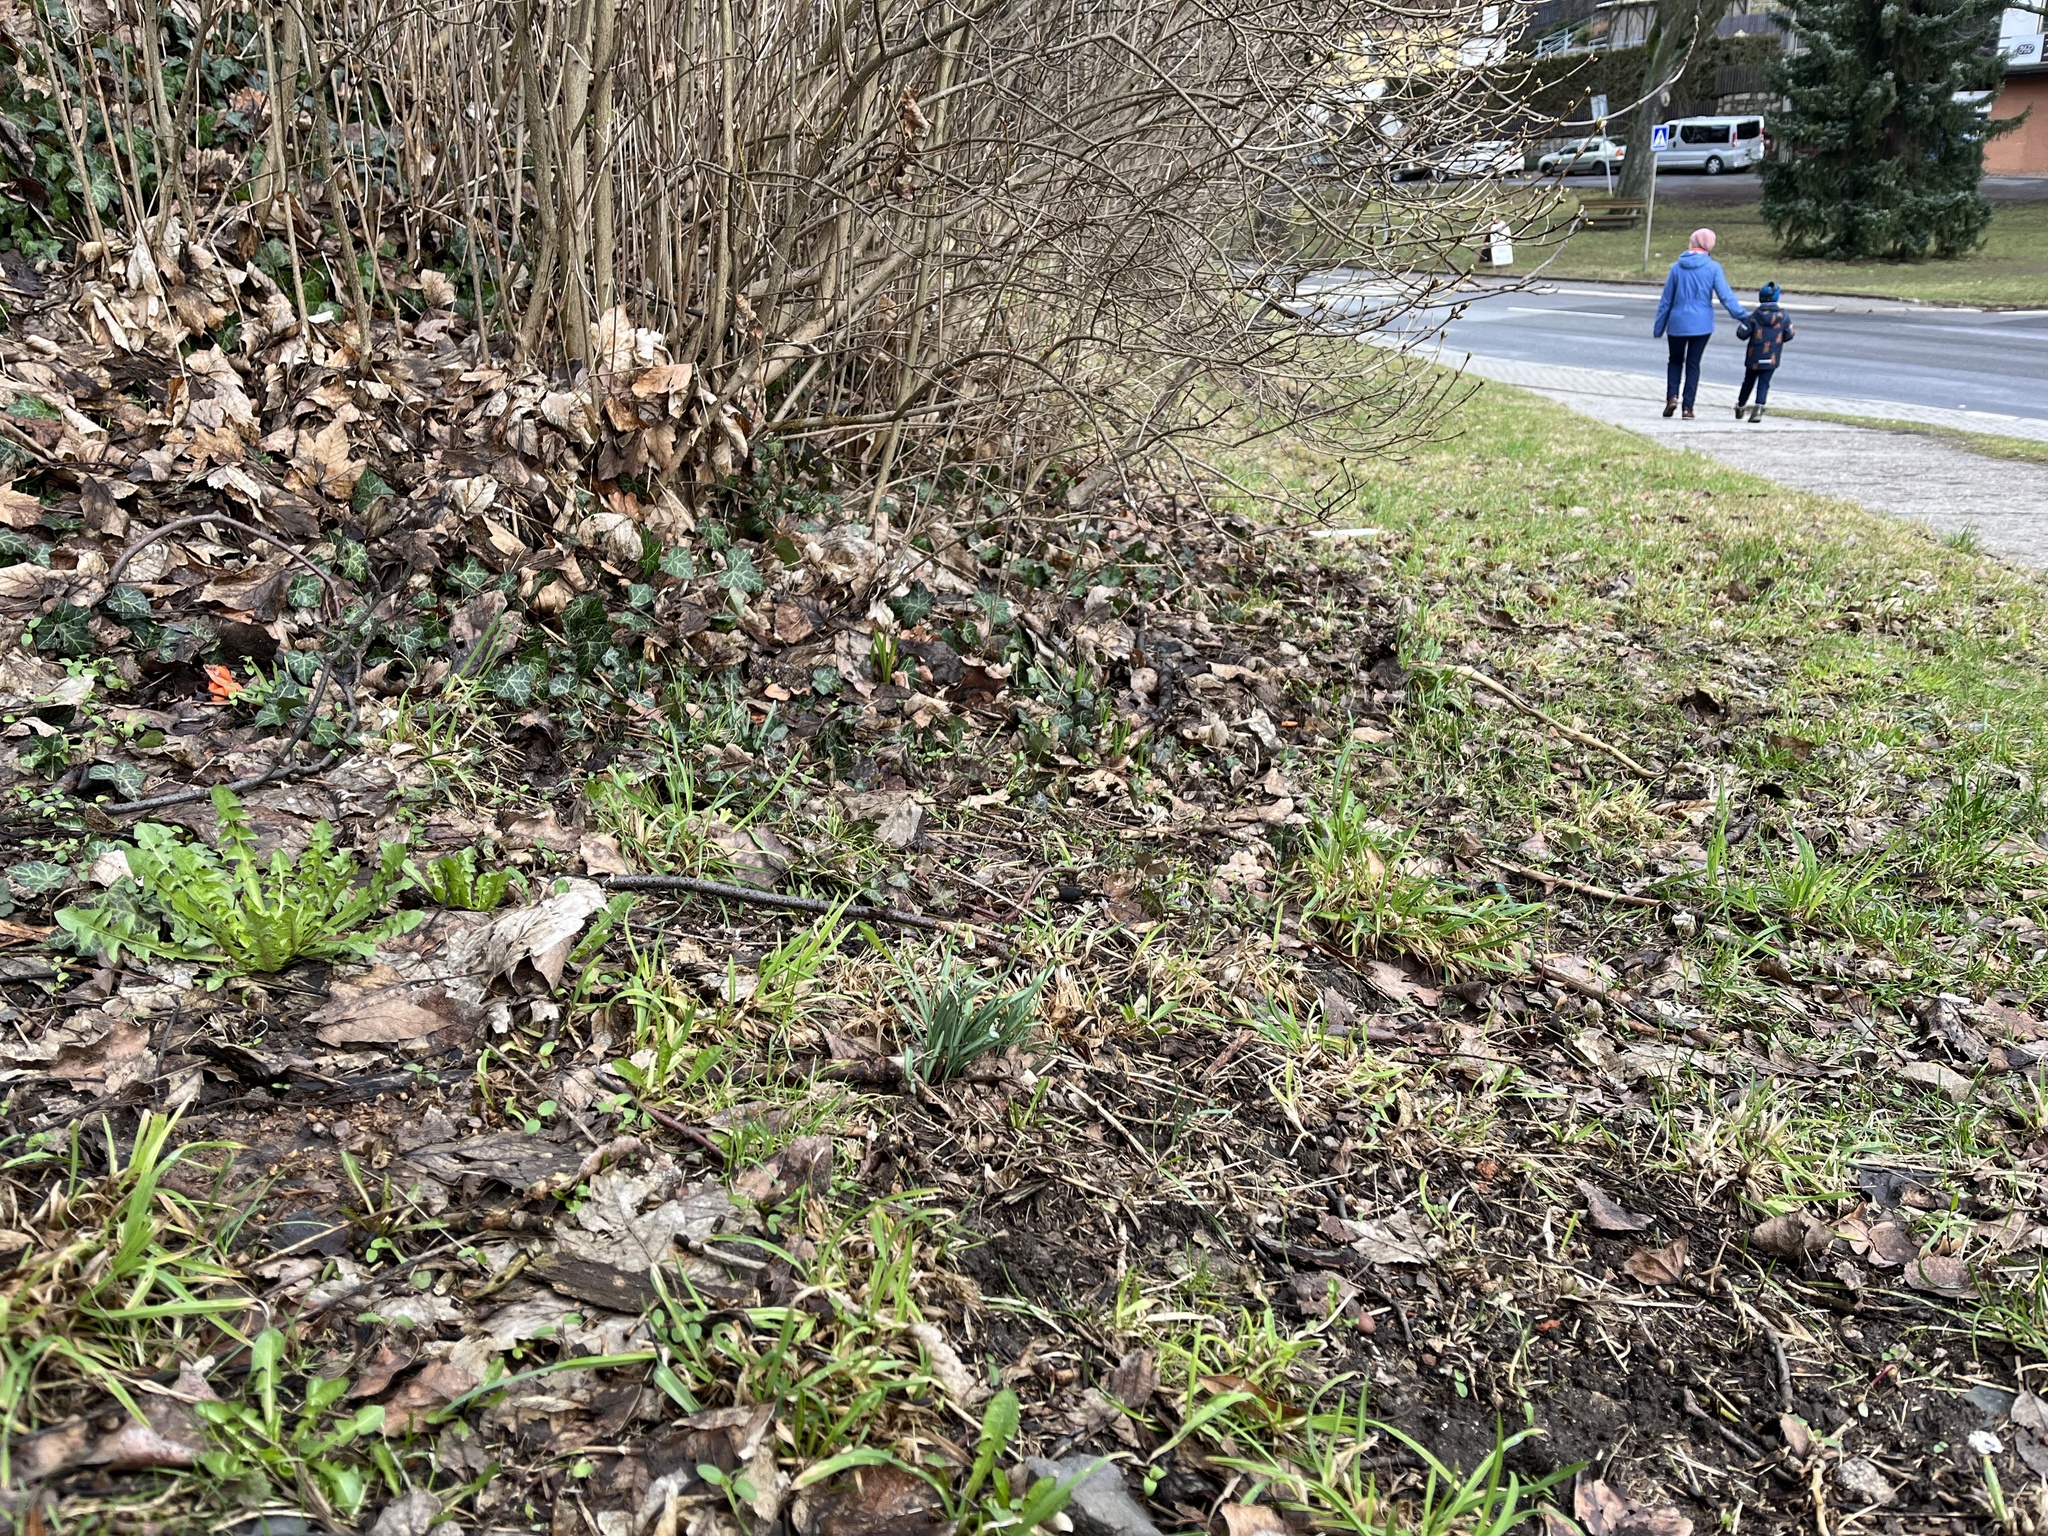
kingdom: Plantae
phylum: Tracheophyta
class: Liliopsida
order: Asparagales
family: Amaryllidaceae
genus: Galanthus
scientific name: Galanthus nivalis
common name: Snowdrop
